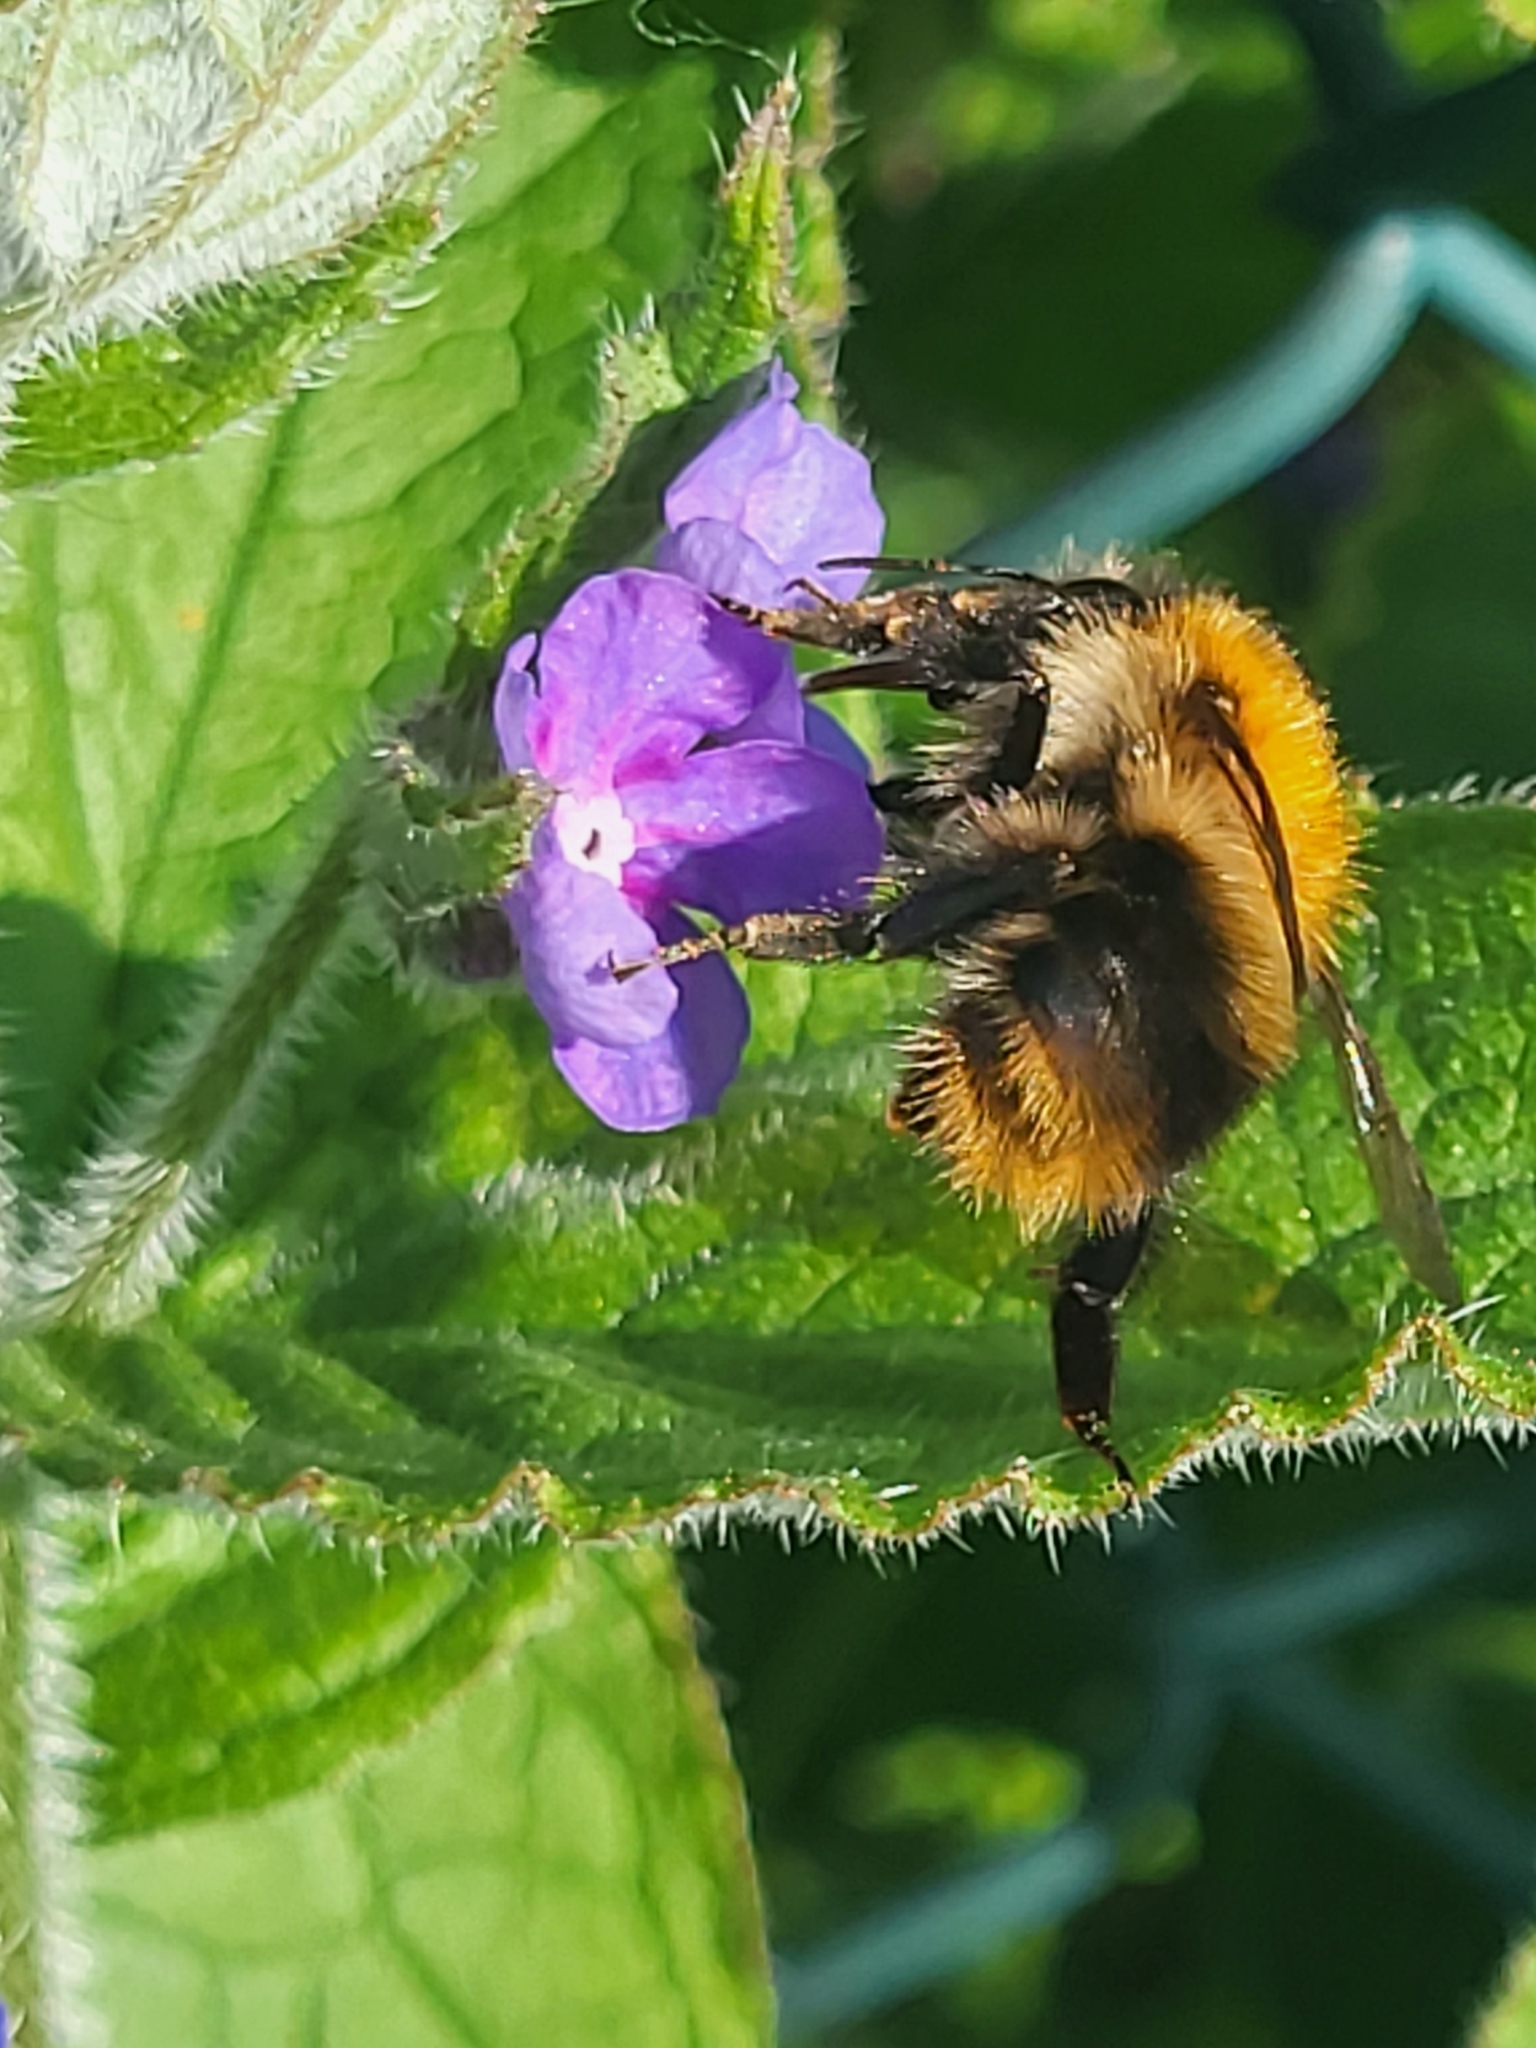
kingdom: Animalia
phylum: Arthropoda
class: Insecta
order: Hymenoptera
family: Apidae
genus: Bombus
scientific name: Bombus pascuorum
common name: Common carder bee
